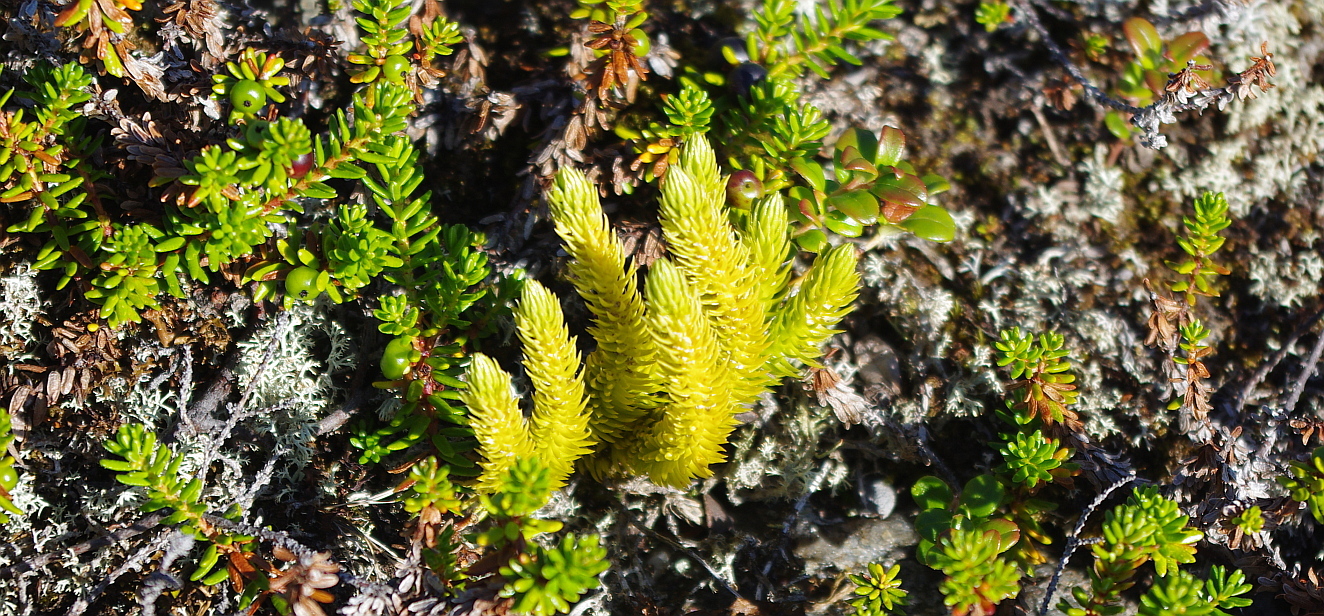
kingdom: Plantae
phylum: Tracheophyta
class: Lycopodiopsida
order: Lycopodiales
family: Lycopodiaceae
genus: Huperzia
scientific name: Huperzia selago
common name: Northern firmoss
